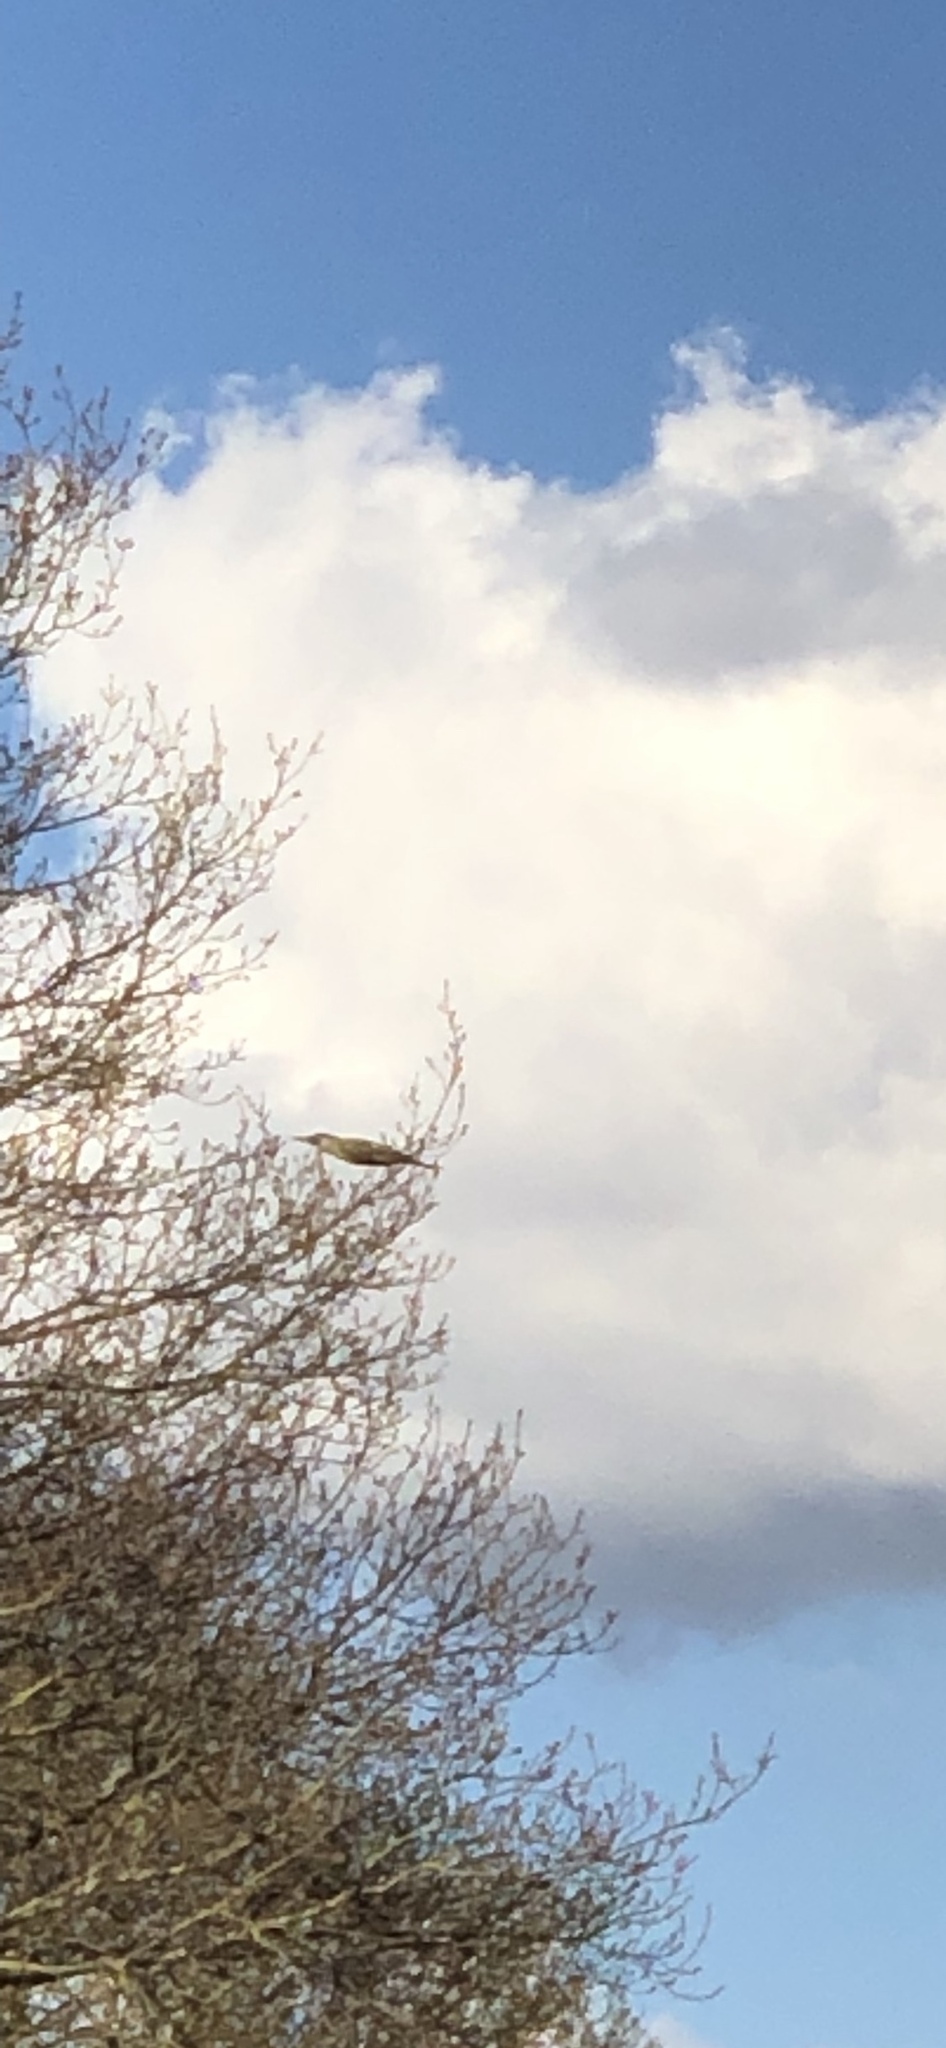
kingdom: Animalia
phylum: Chordata
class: Aves
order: Piciformes
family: Picidae
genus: Picus
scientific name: Picus viridis
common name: European green woodpecker
